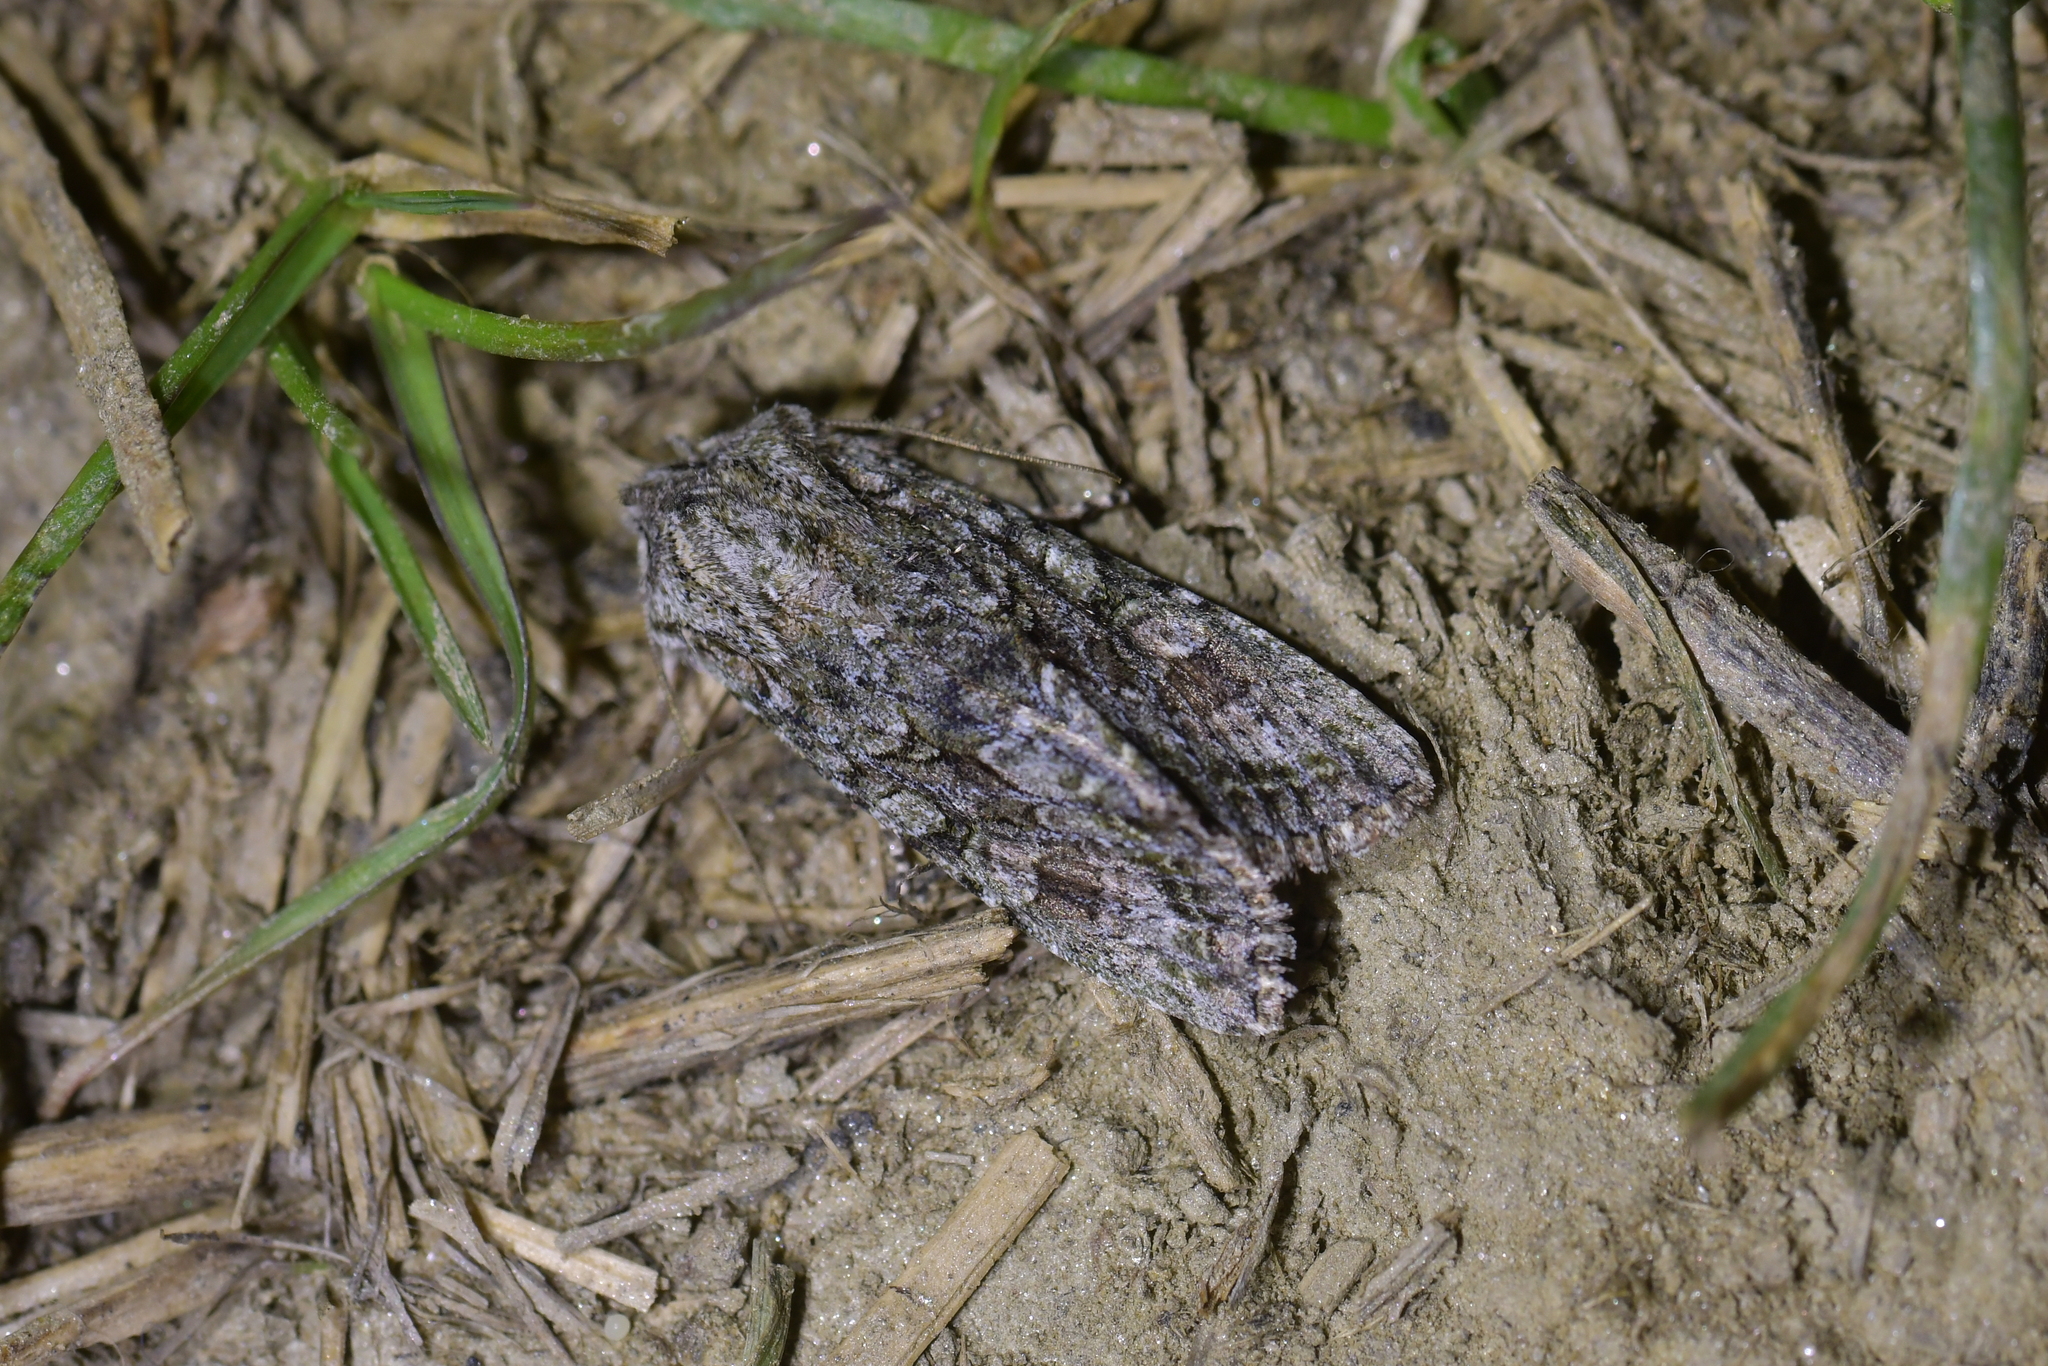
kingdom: Animalia
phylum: Arthropoda
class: Insecta
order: Lepidoptera
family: Noctuidae
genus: Ichneutica
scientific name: Ichneutica mutans
